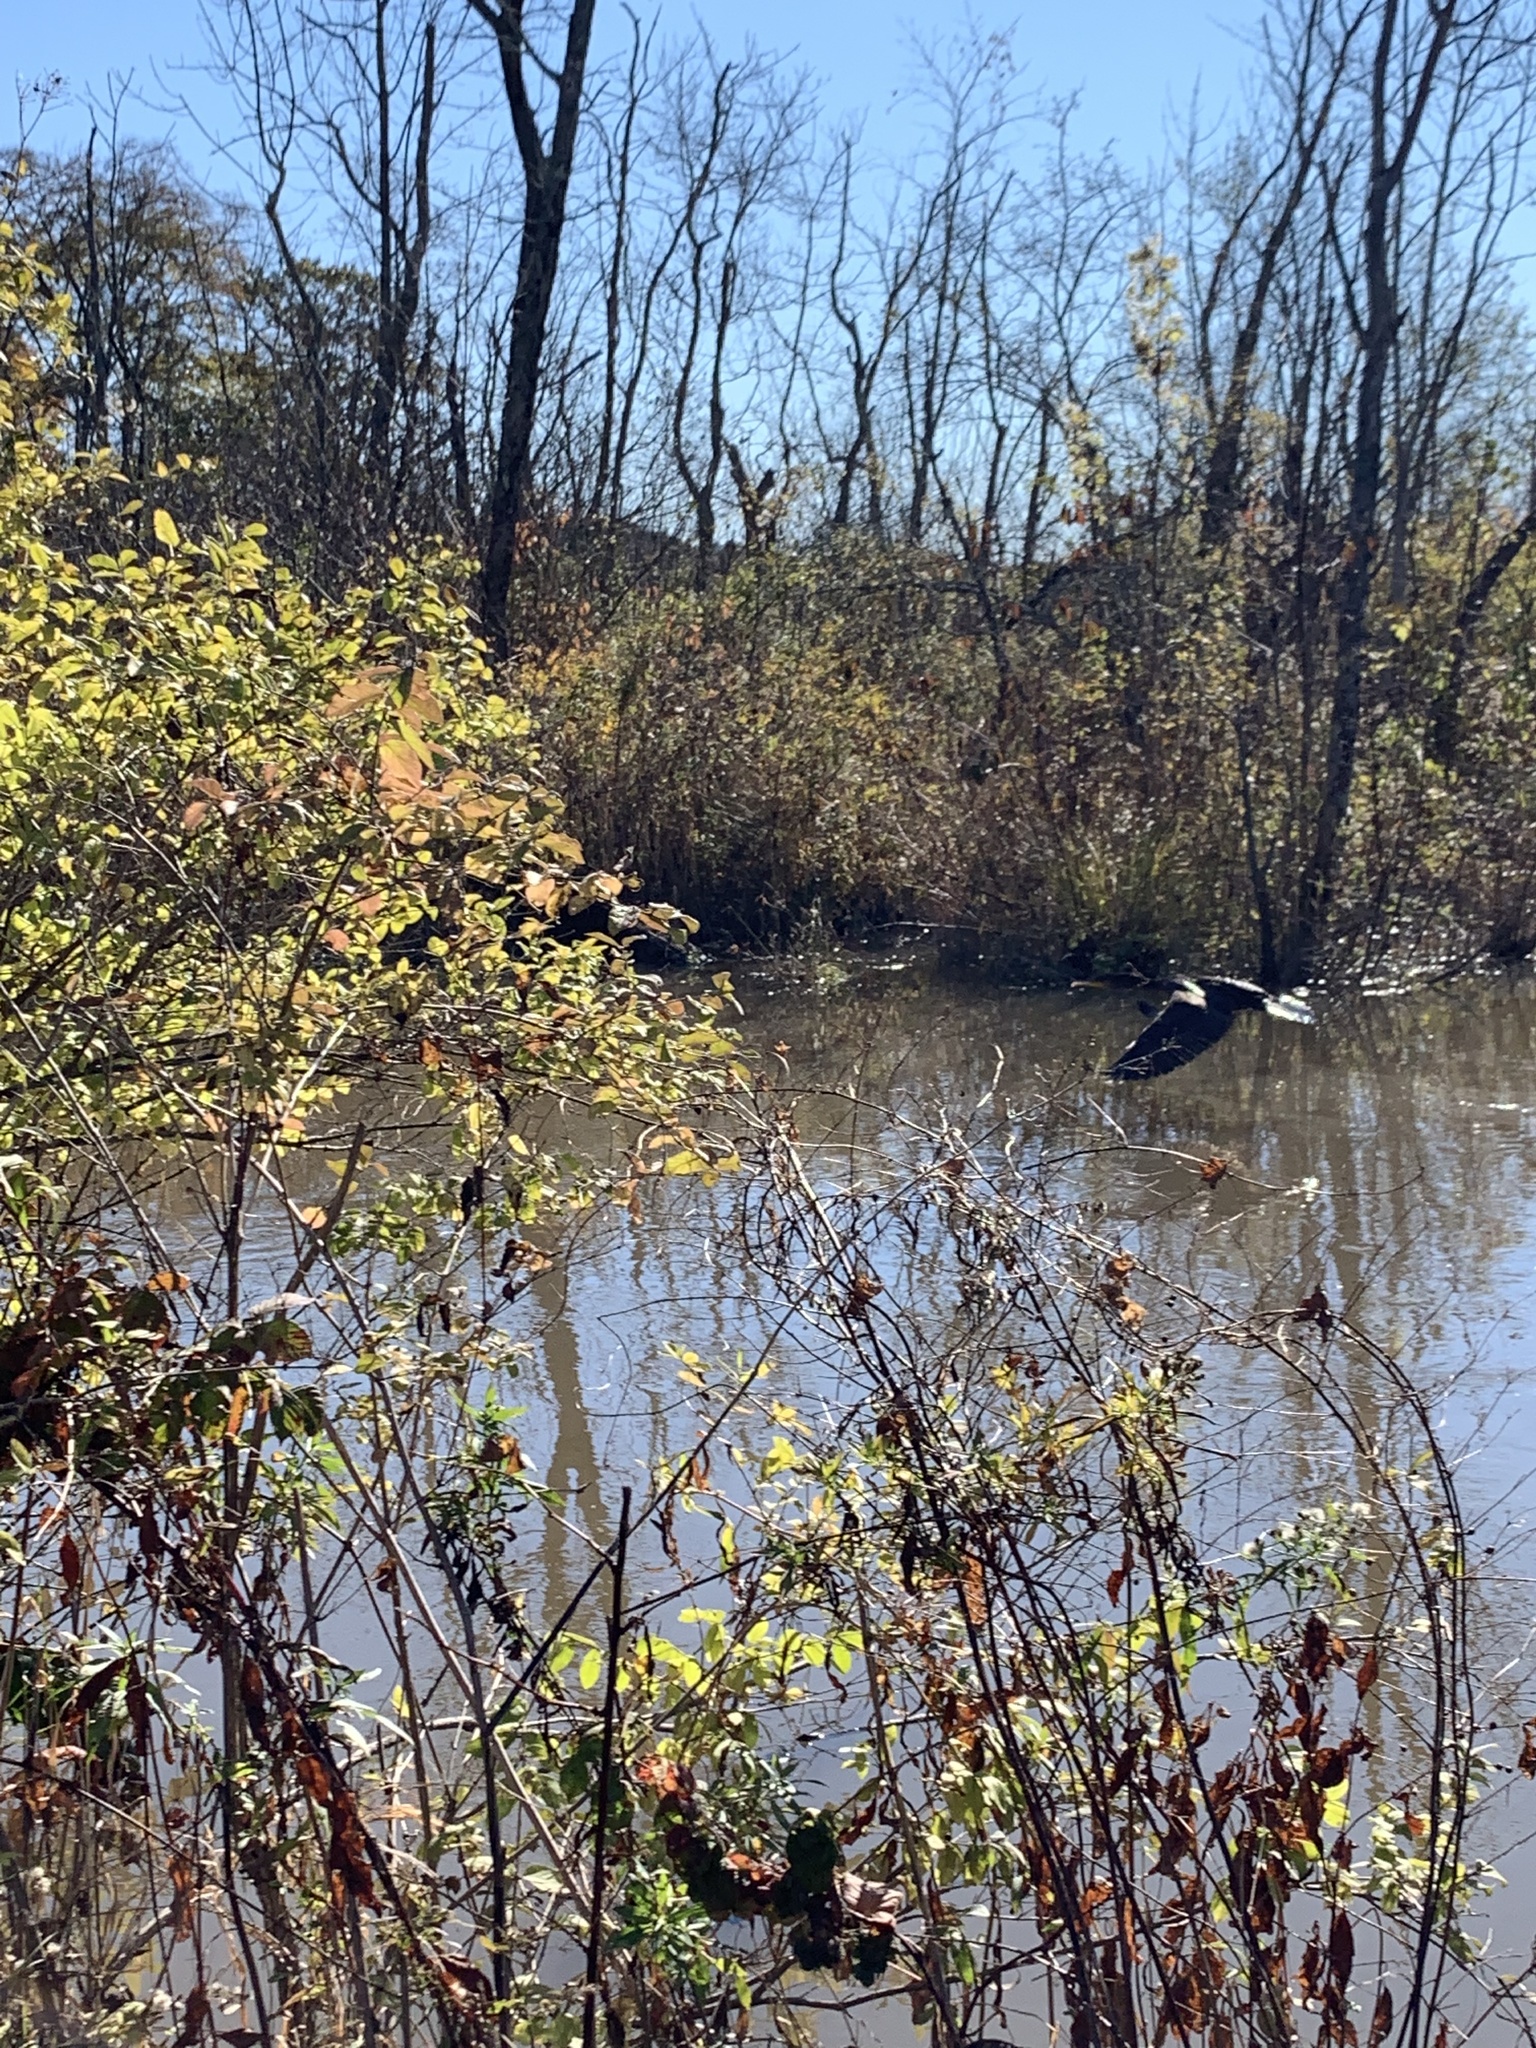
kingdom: Animalia
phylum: Chordata
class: Aves
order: Suliformes
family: Phalacrocoracidae
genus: Phalacrocorax
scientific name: Phalacrocorax auritus
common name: Double-crested cormorant
